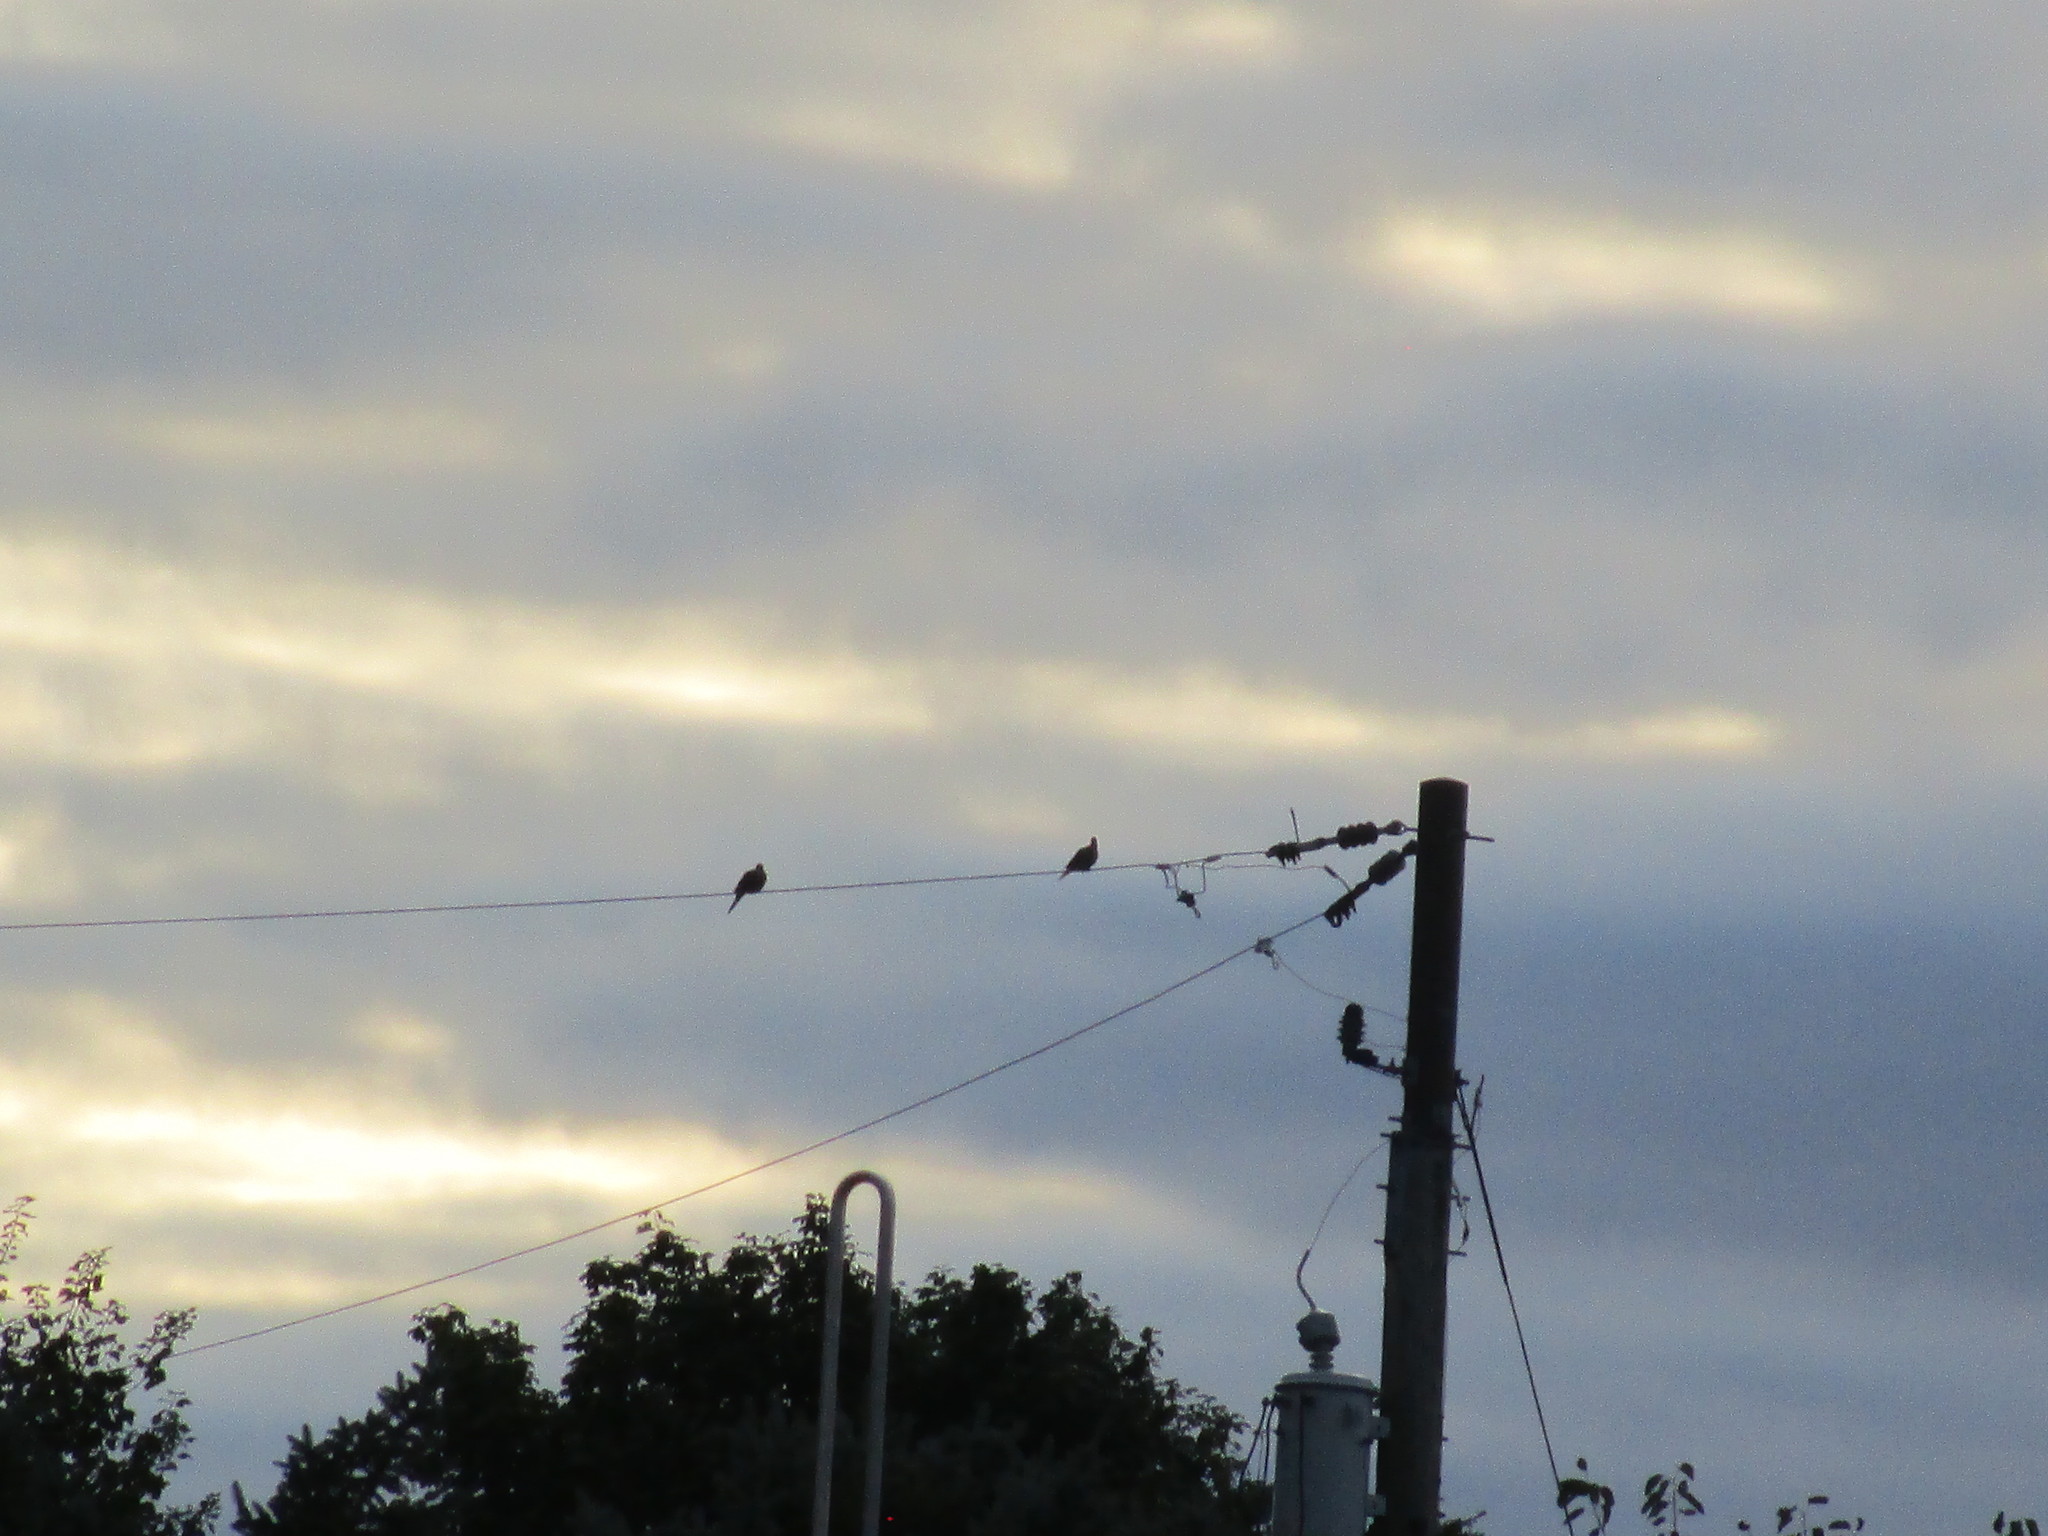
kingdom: Animalia
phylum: Chordata
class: Aves
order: Columbiformes
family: Columbidae
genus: Zenaida
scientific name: Zenaida macroura
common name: Mourning dove
